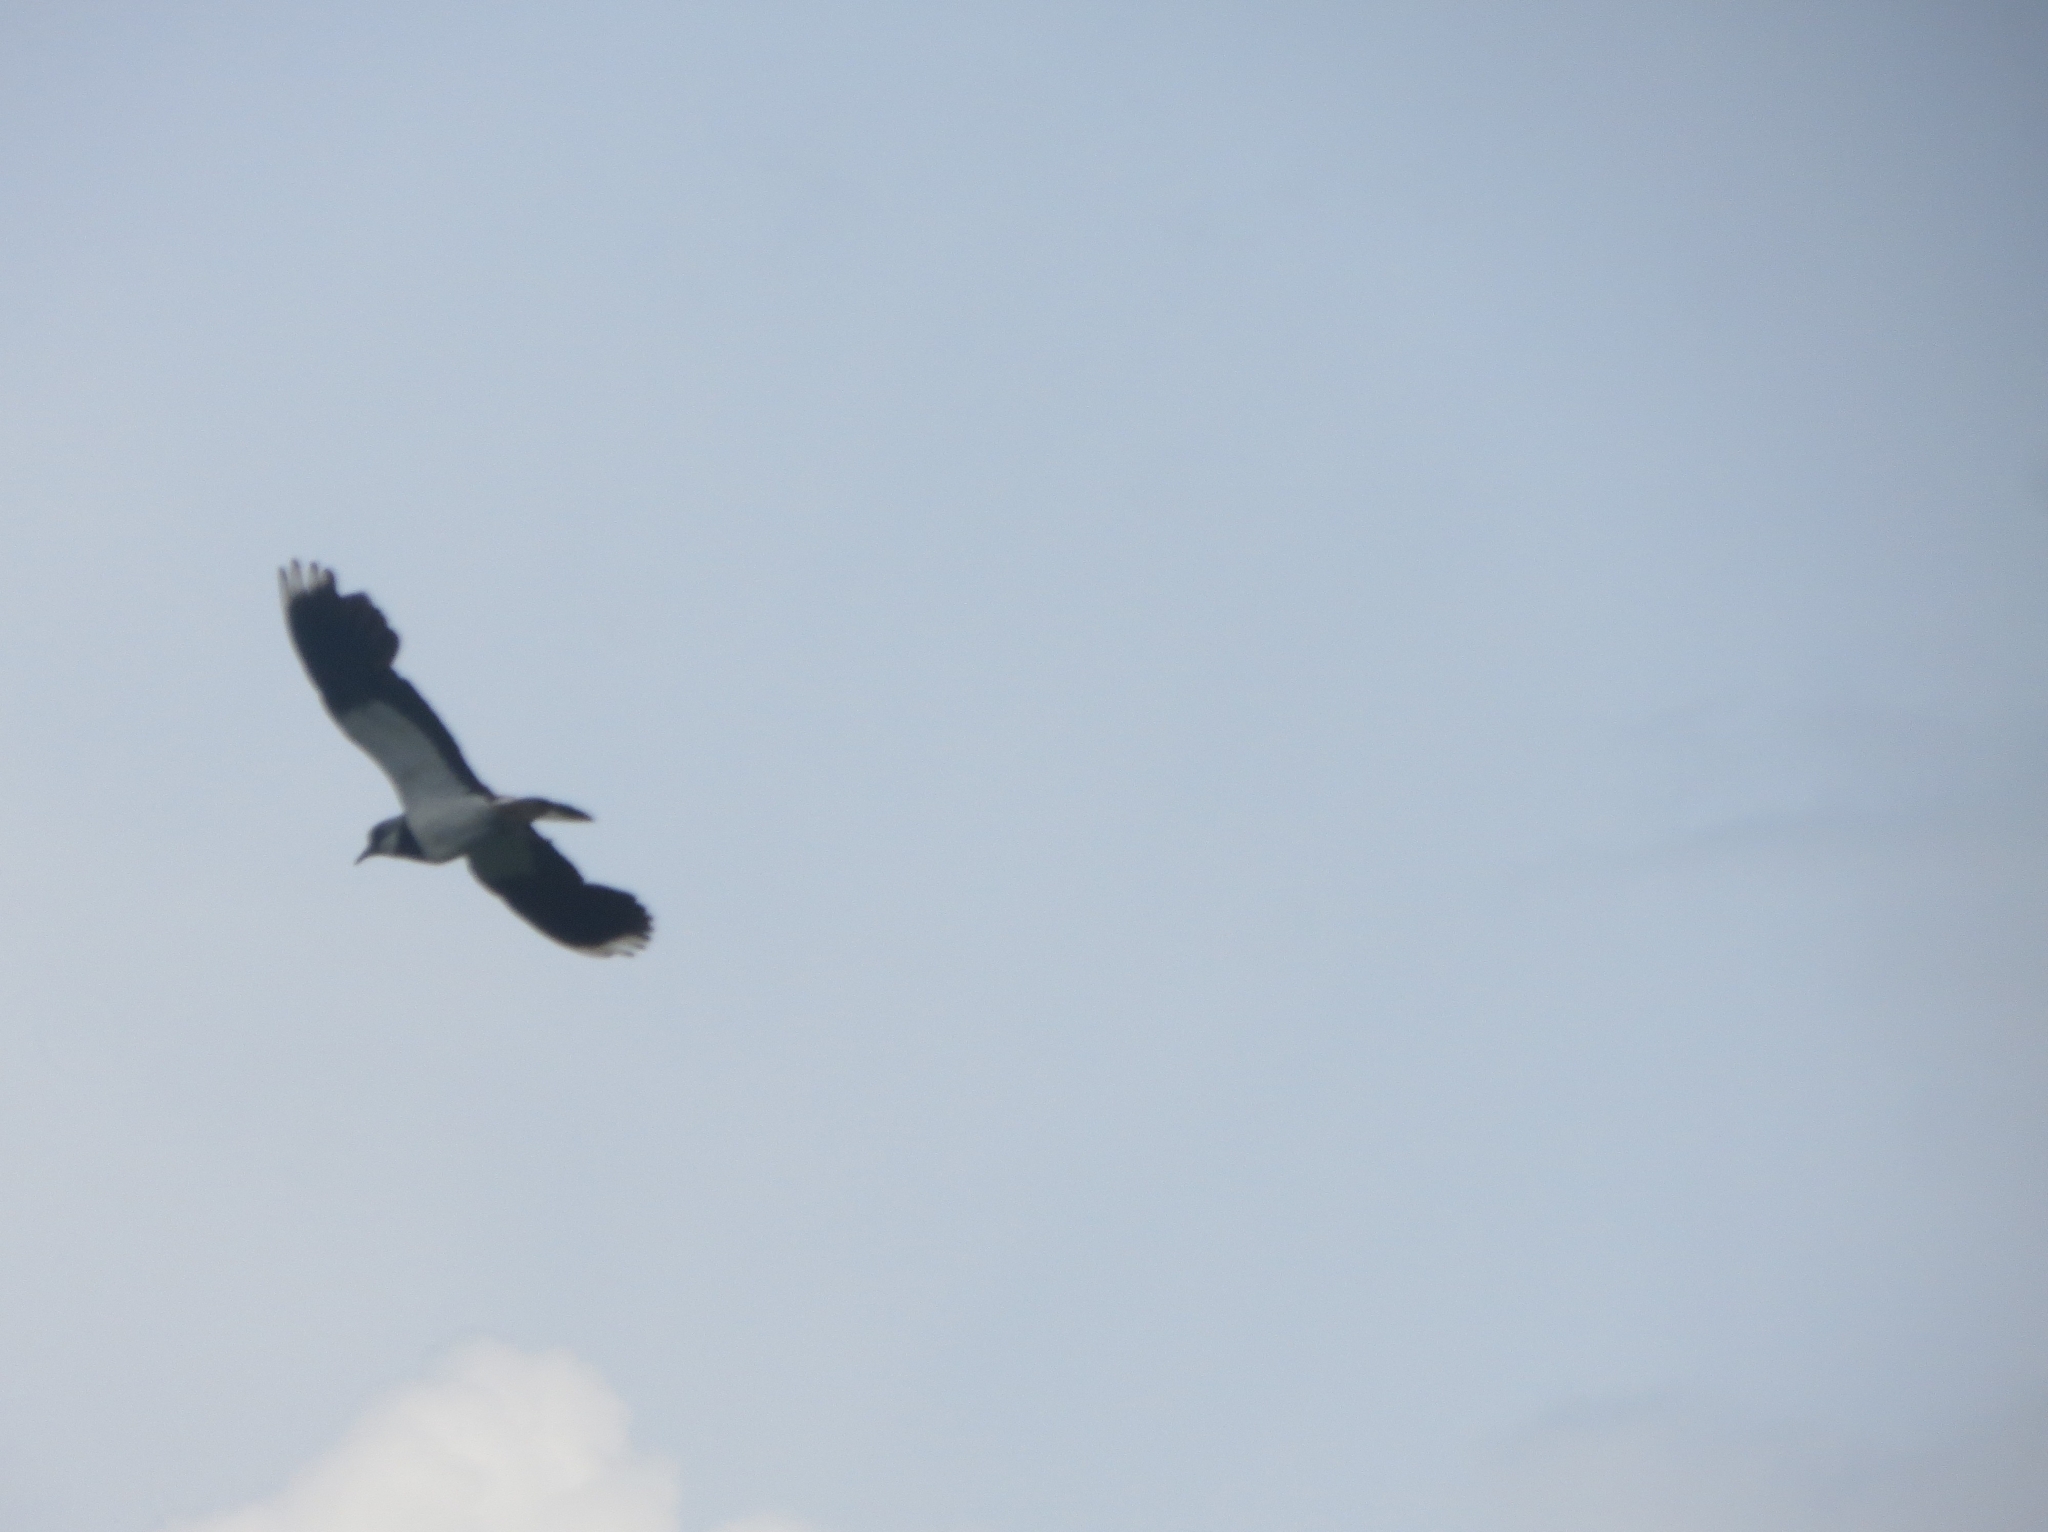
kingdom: Animalia
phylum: Chordata
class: Aves
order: Charadriiformes
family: Charadriidae
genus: Vanellus
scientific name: Vanellus vanellus
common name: Northern lapwing
